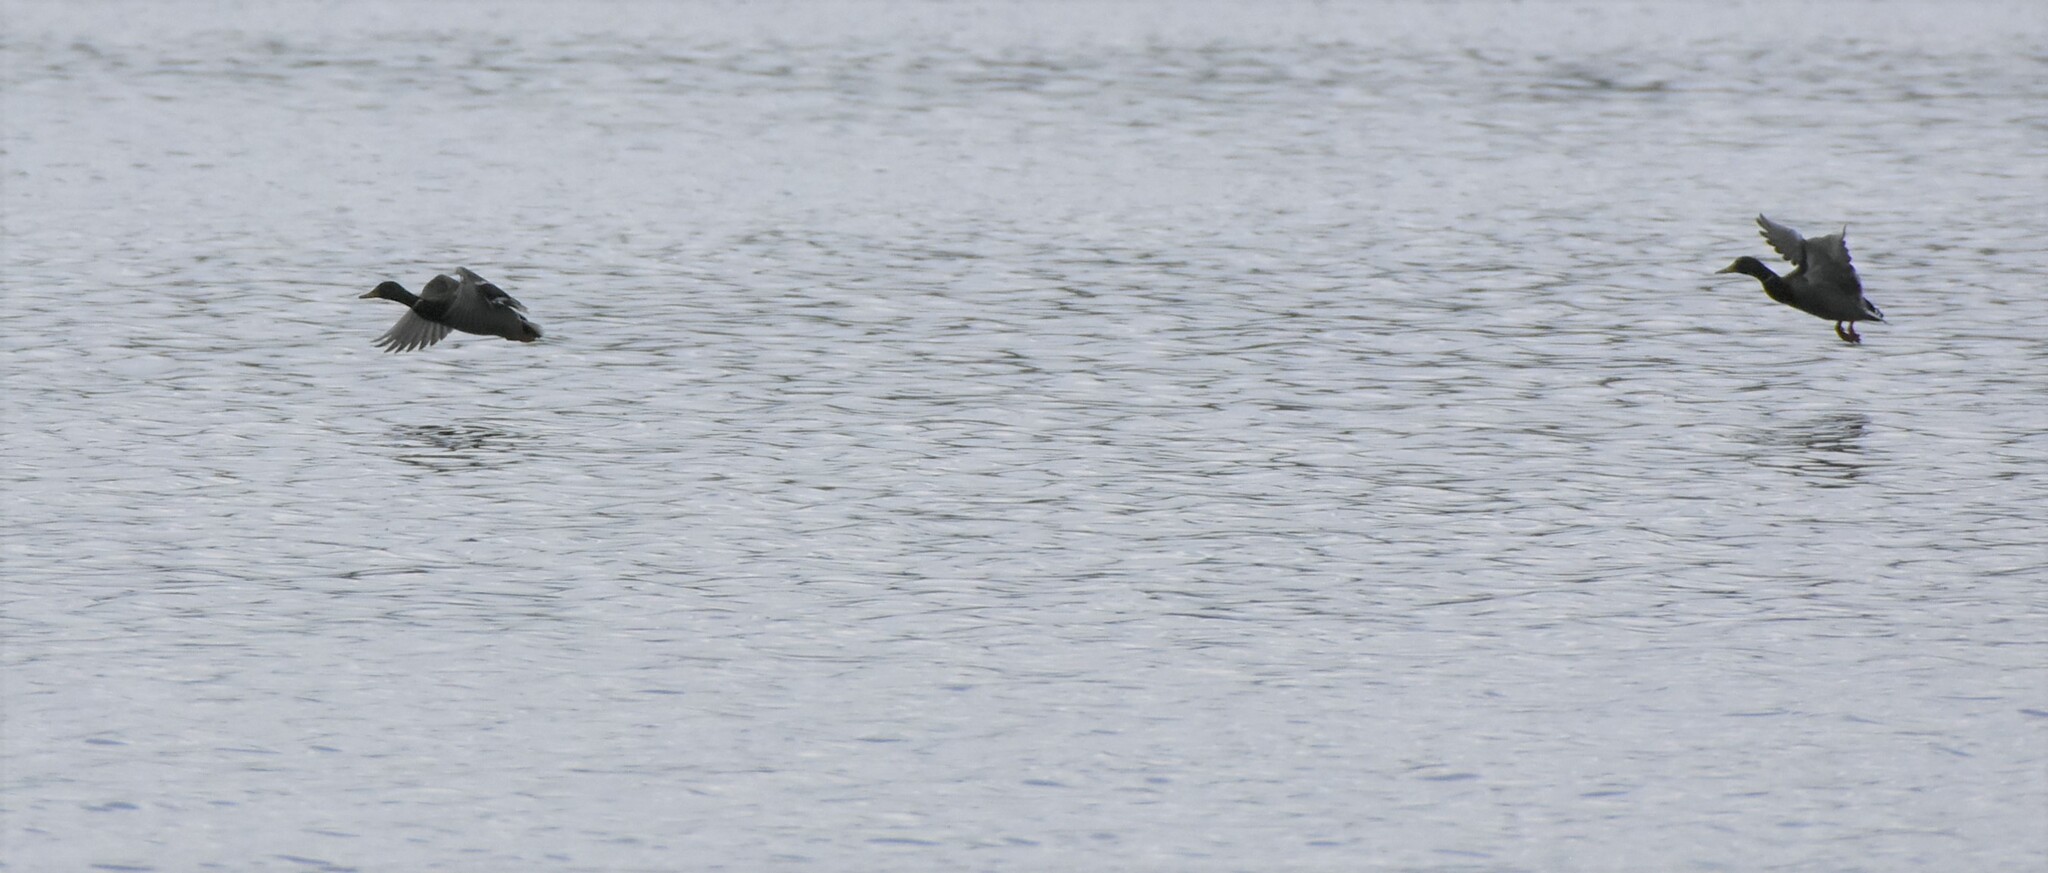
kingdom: Animalia
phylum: Chordata
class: Aves
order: Anseriformes
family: Anatidae
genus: Anas
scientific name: Anas platyrhynchos
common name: Mallard
